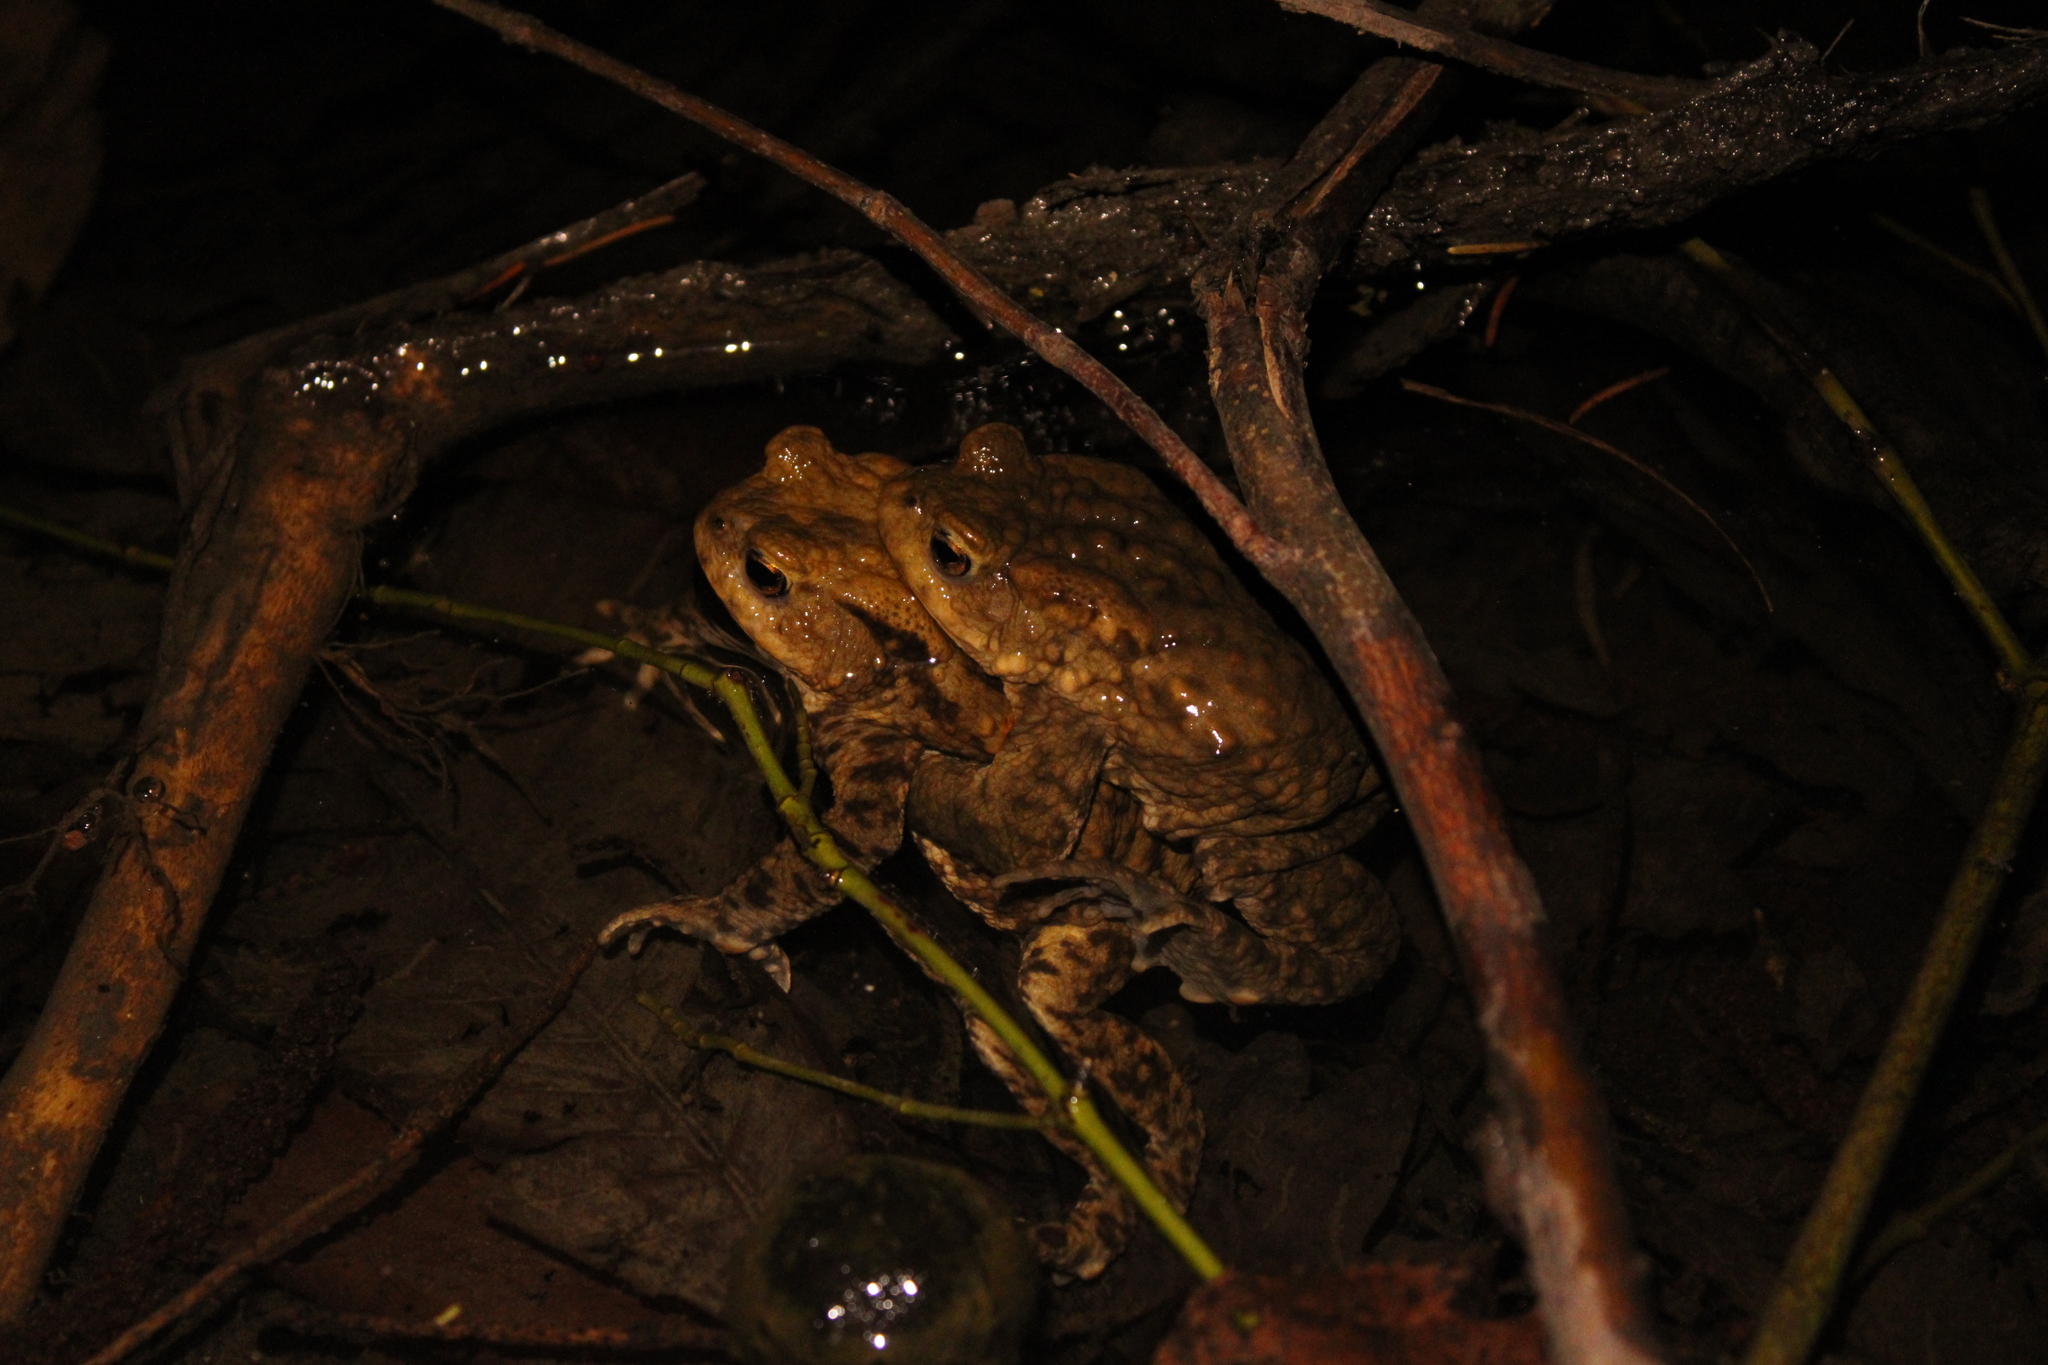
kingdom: Animalia
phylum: Chordata
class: Amphibia
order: Anura
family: Bufonidae
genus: Bufo
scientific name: Bufo bufo
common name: Common toad
